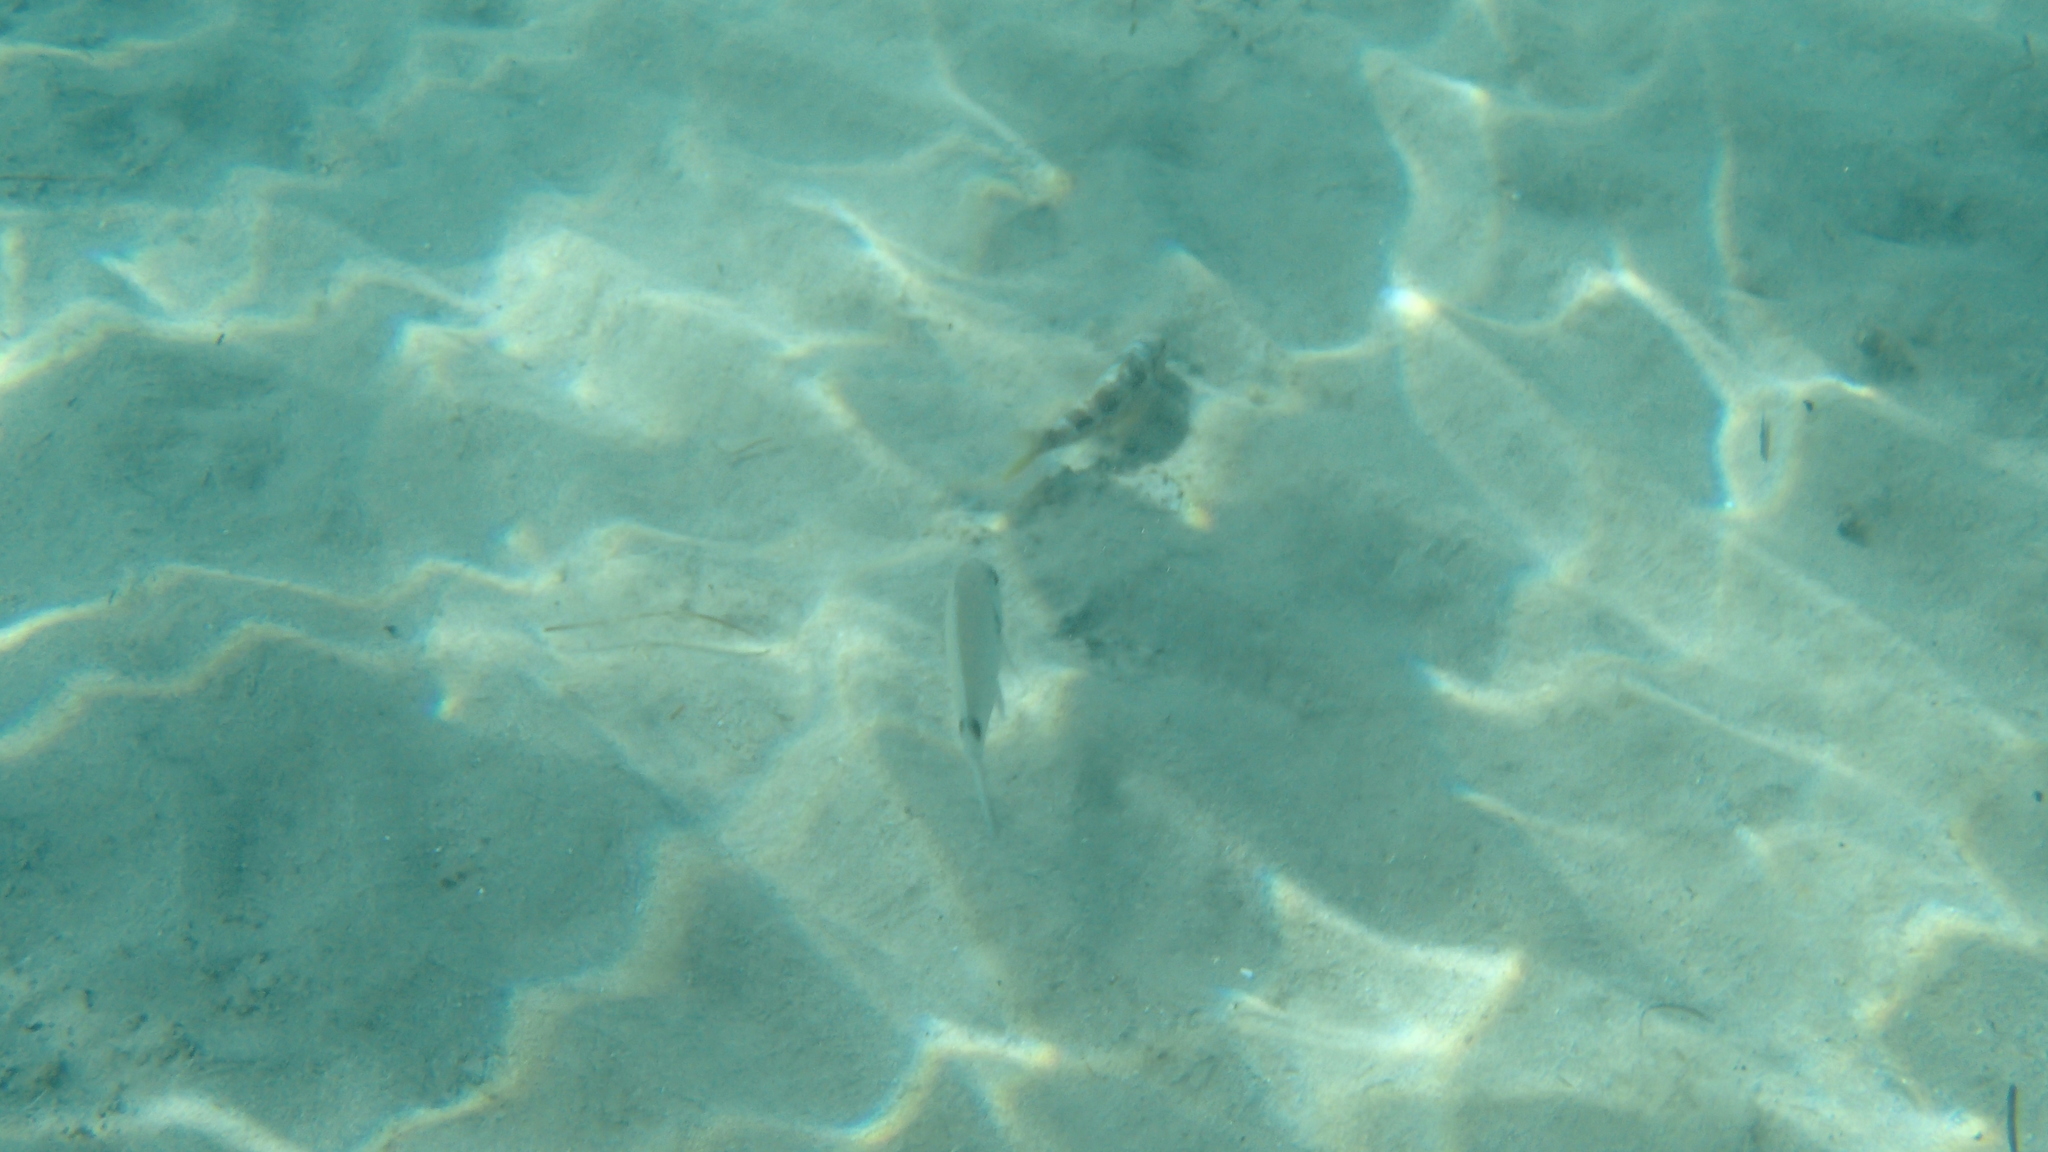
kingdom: Animalia
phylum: Chordata
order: Perciformes
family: Sparidae
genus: Diplodus
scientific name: Diplodus
